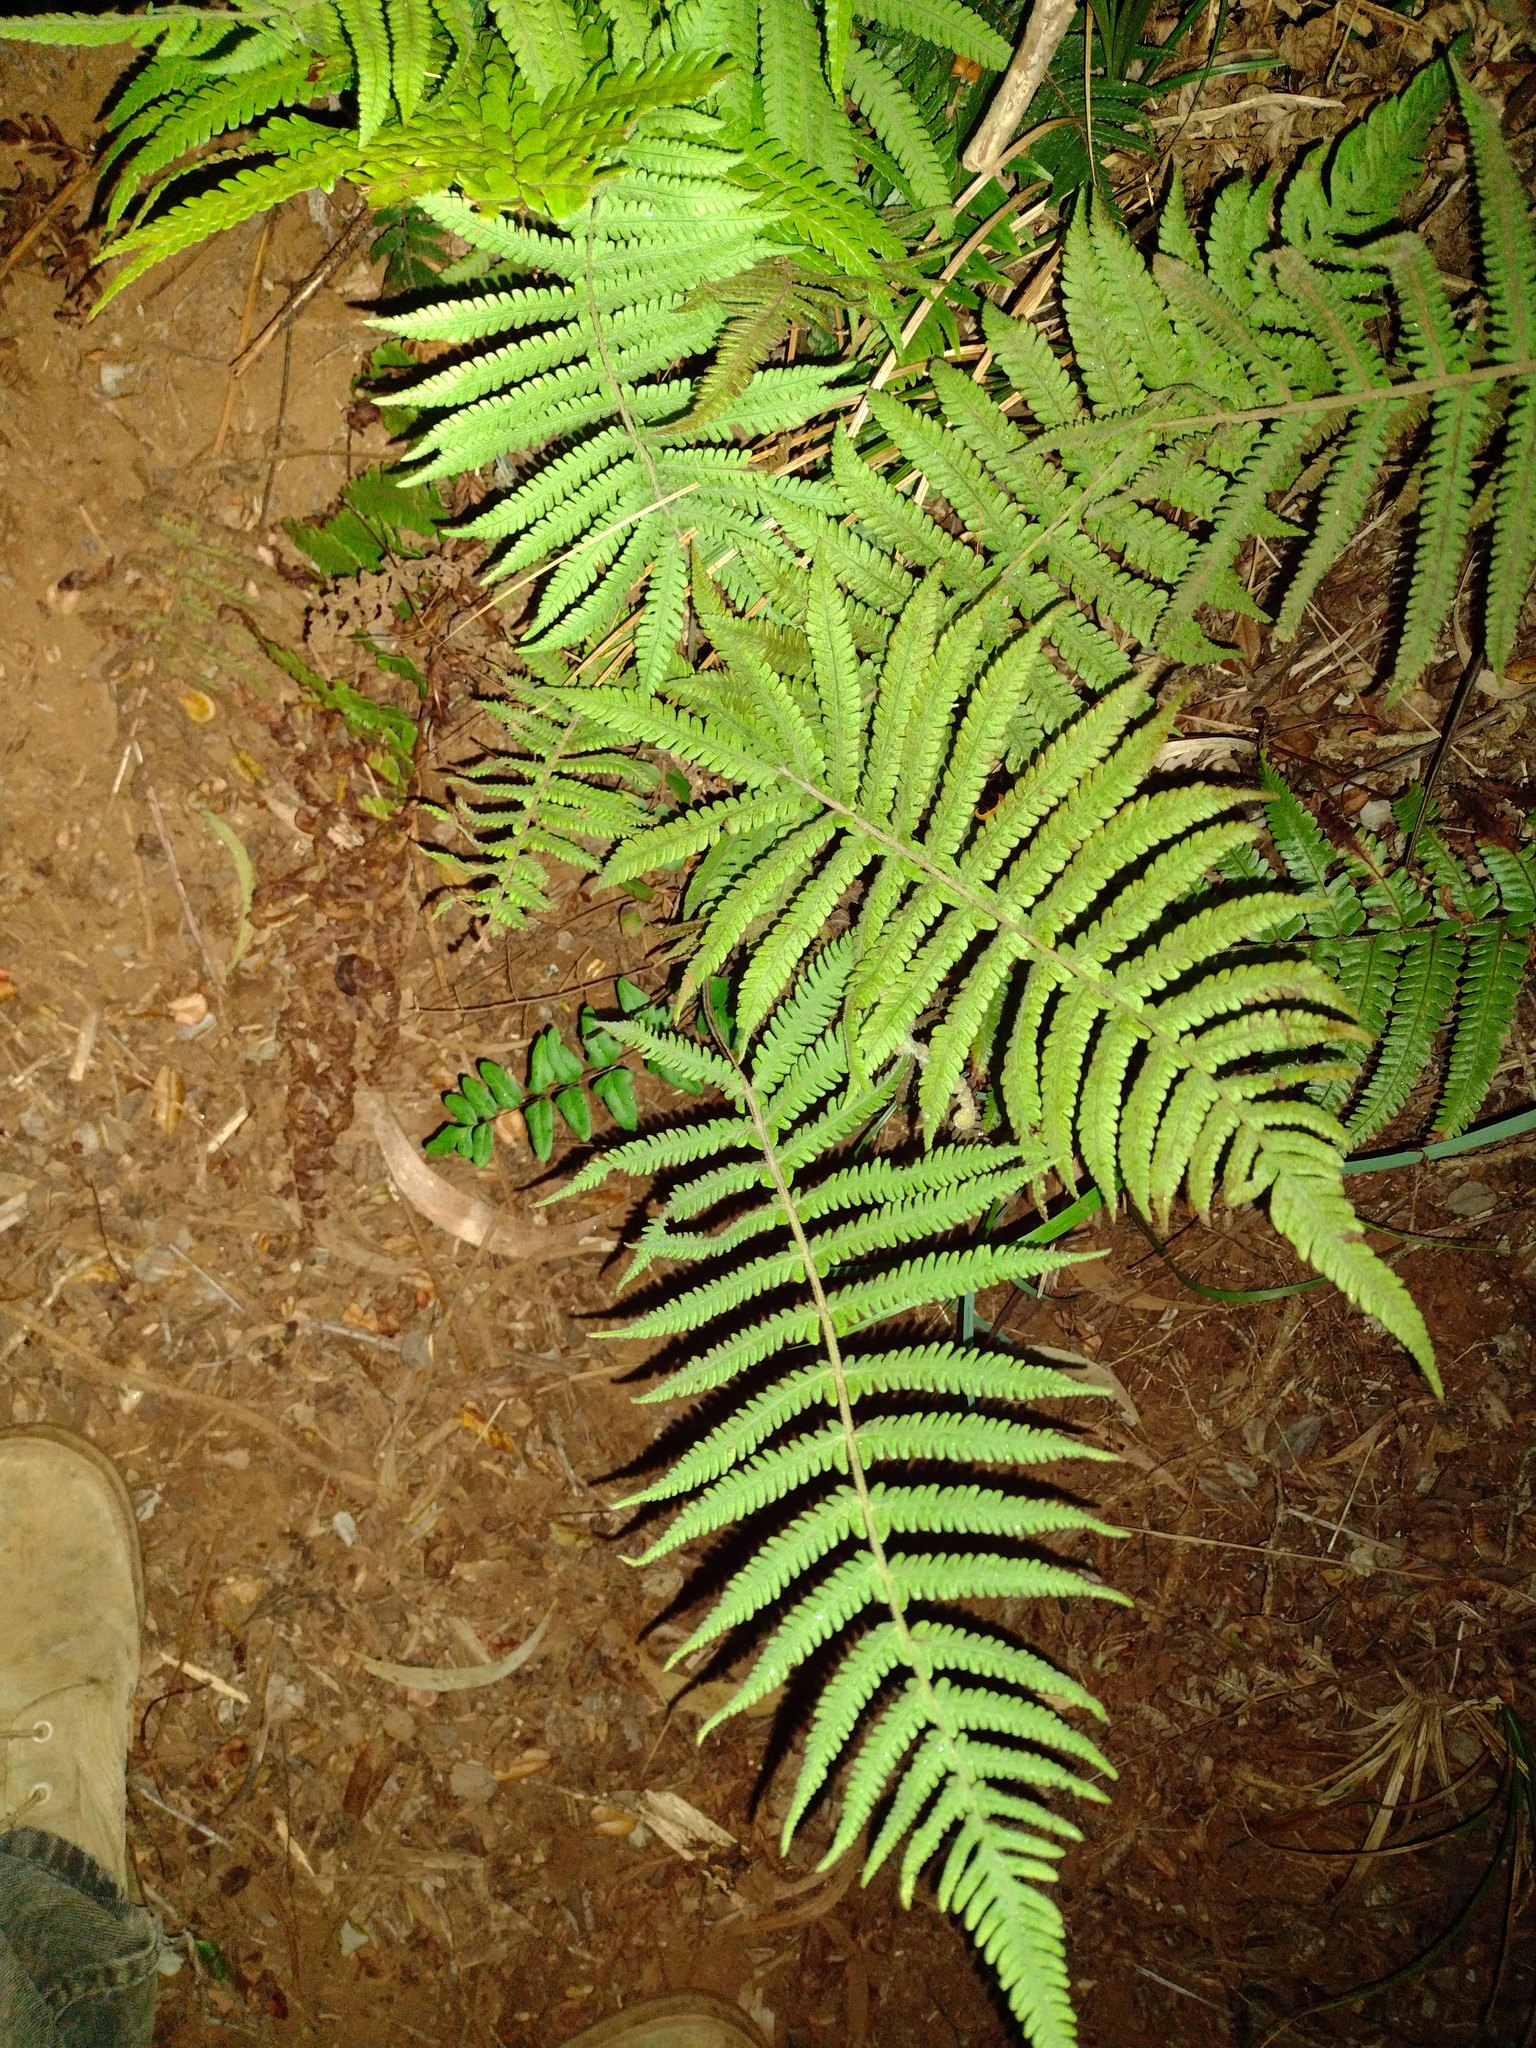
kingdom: Plantae
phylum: Tracheophyta
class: Polypodiopsida
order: Polypodiales
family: Thelypteridaceae
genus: Christella
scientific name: Christella parasitica
